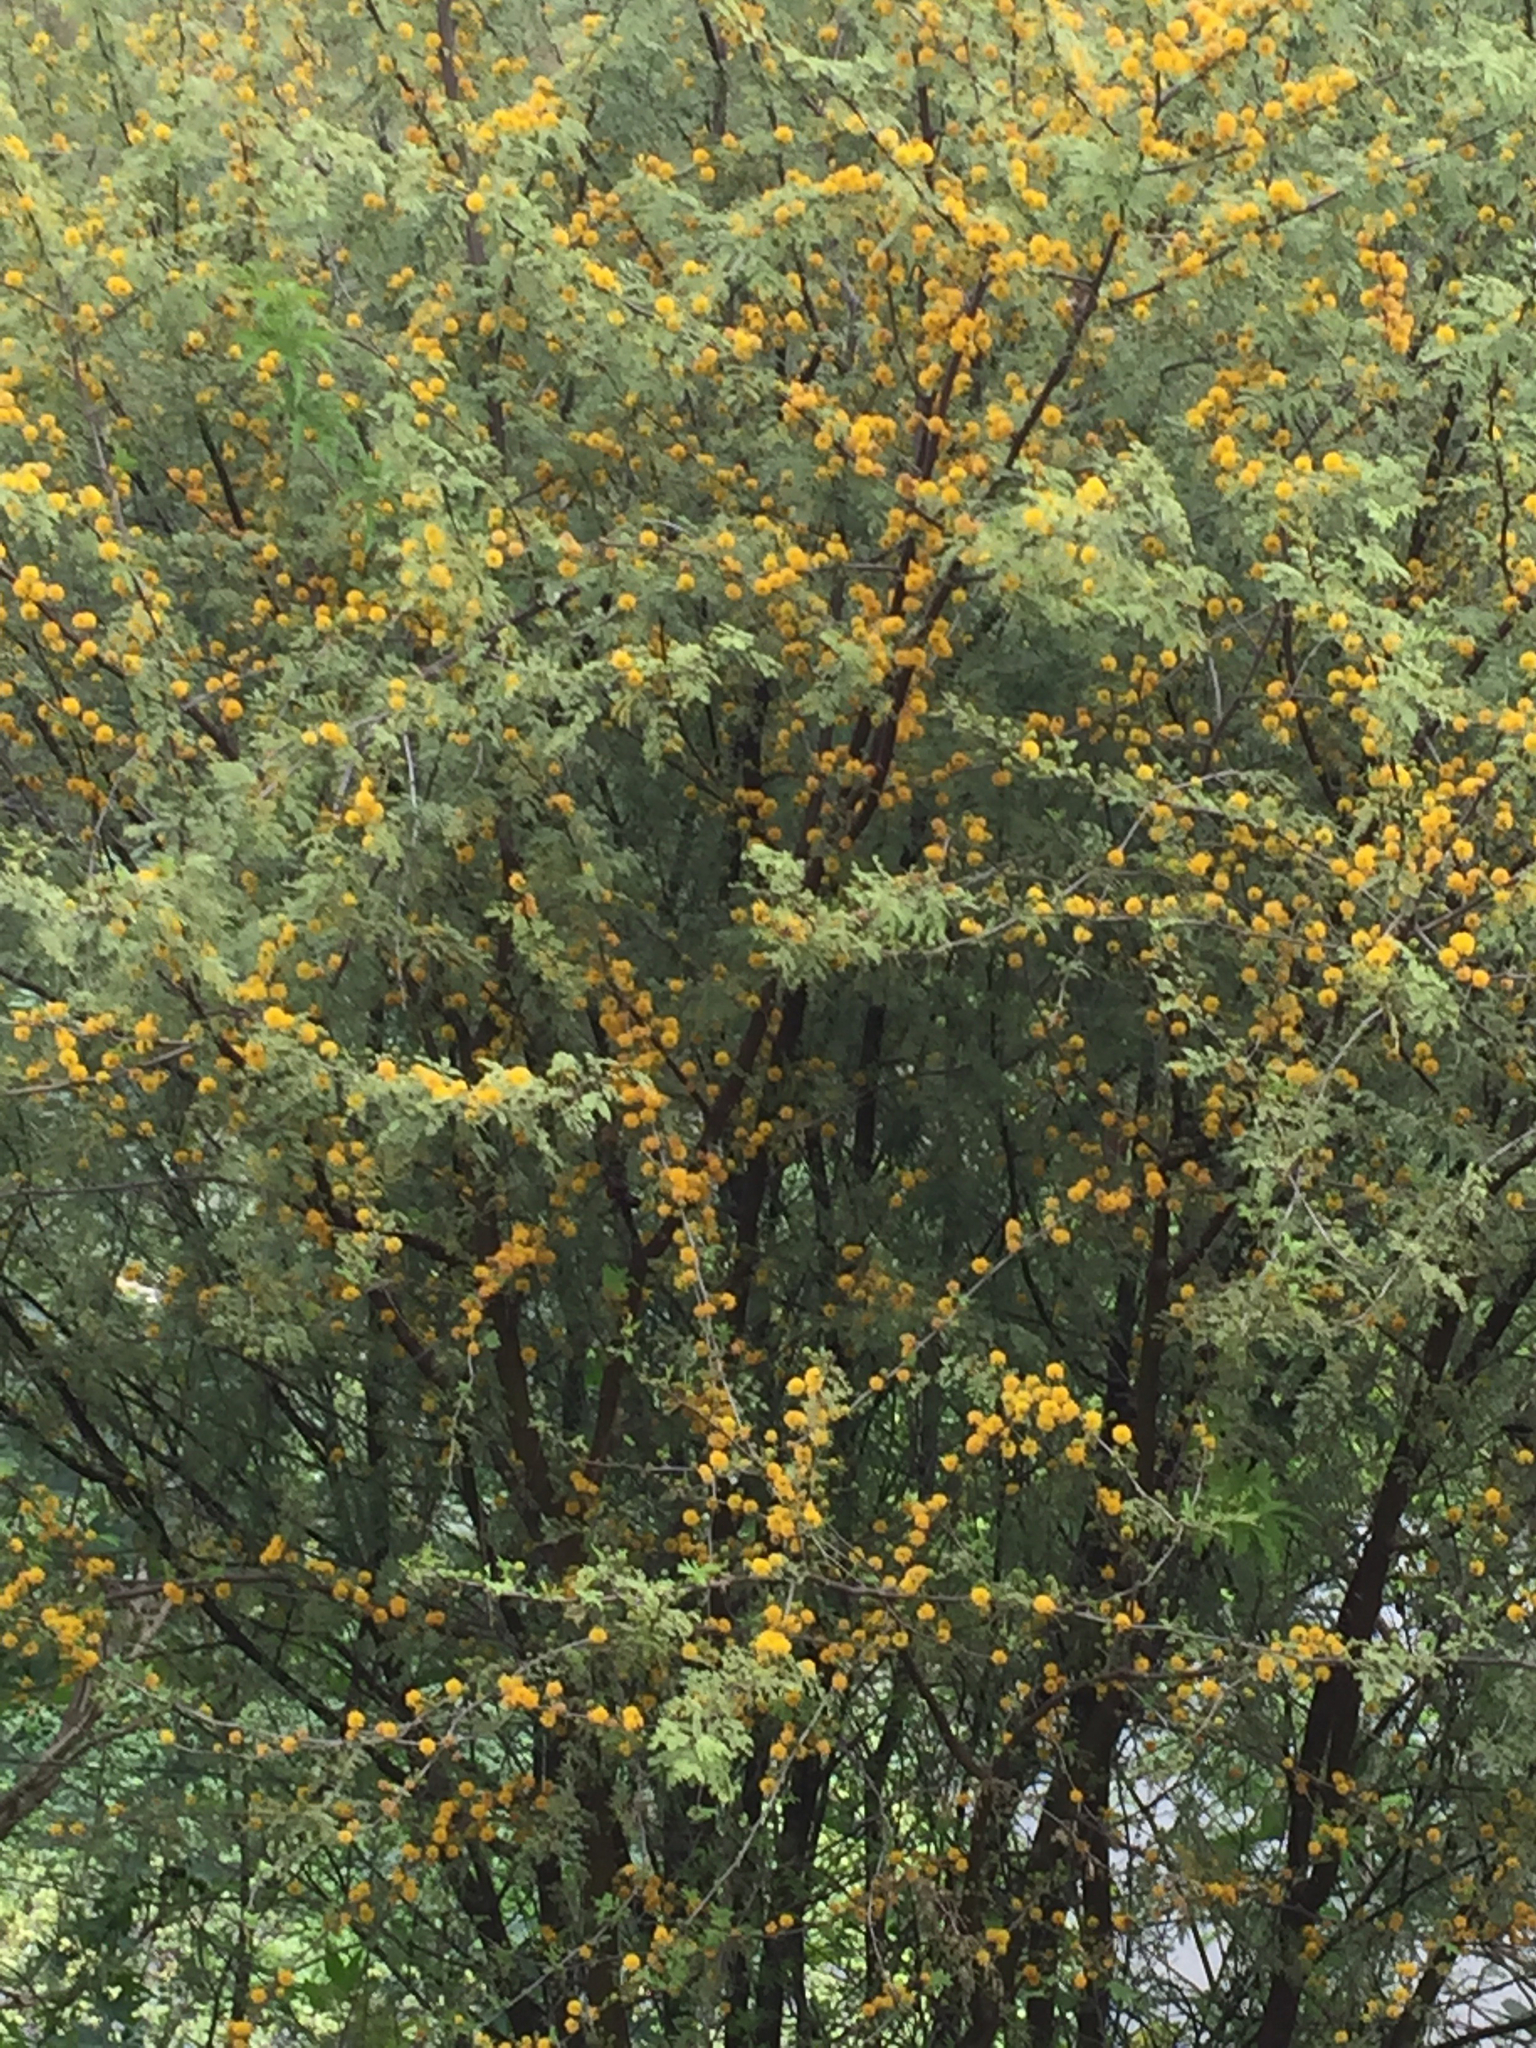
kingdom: Plantae
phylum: Tracheophyta
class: Magnoliopsida
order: Fabales
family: Fabaceae
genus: Vachellia
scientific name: Vachellia farnesiana
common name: Sweet acacia
